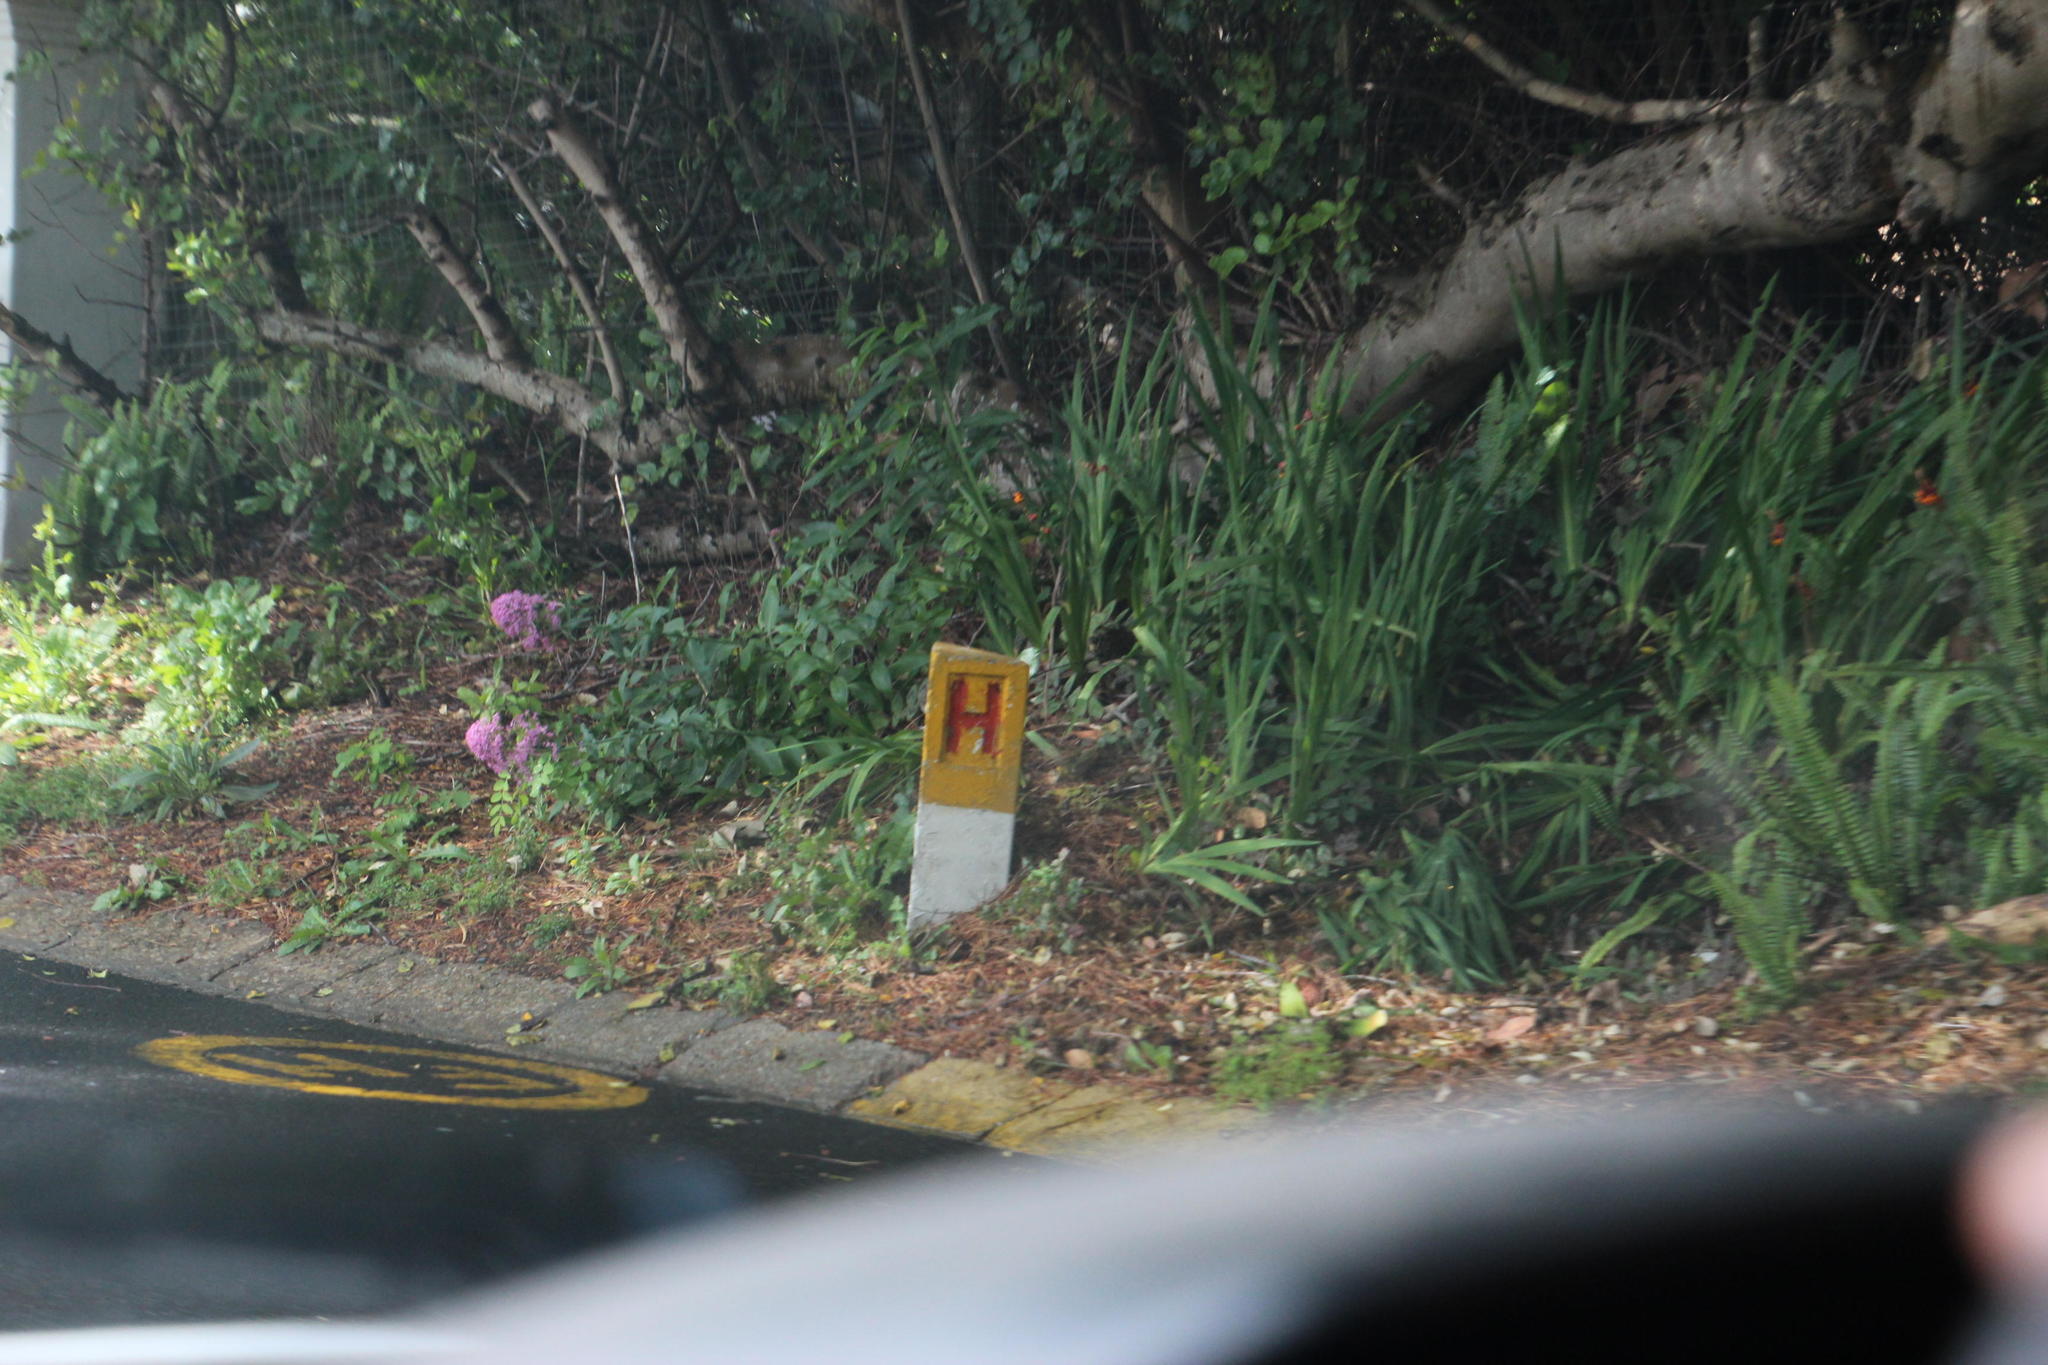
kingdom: Plantae
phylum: Tracheophyta
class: Magnoliopsida
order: Dipsacales
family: Caprifoliaceae
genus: Centranthus
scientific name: Centranthus ruber
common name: Red valerian
